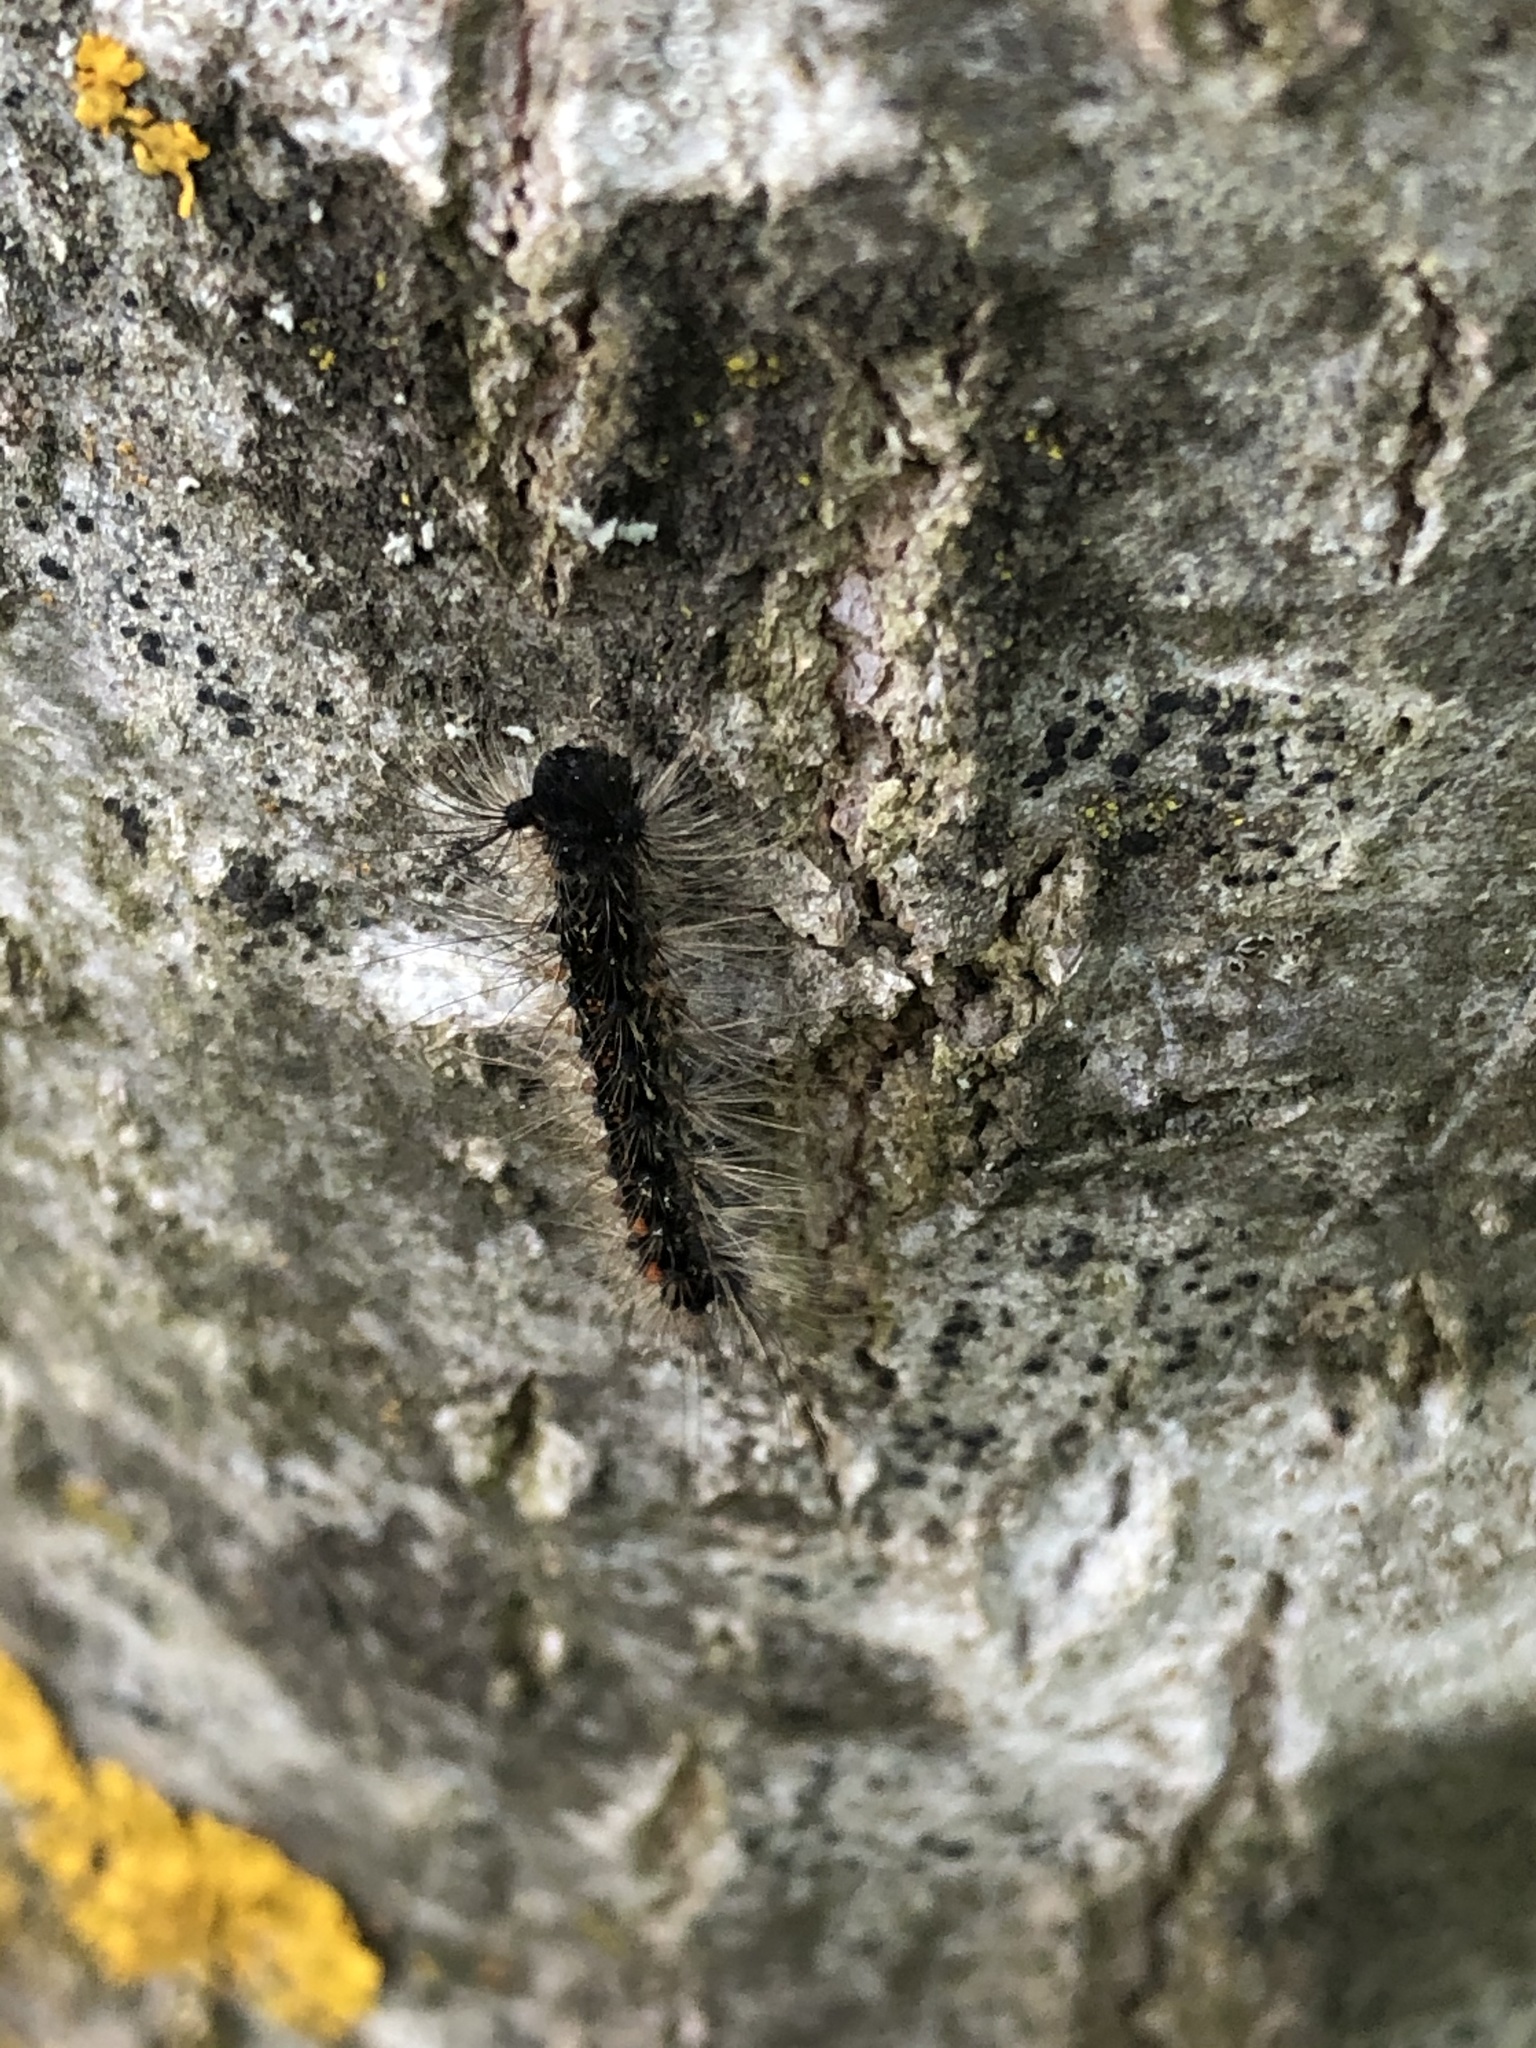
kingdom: Animalia
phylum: Arthropoda
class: Insecta
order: Lepidoptera
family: Erebidae
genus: Lymantria
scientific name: Lymantria dispar
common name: Gypsy moth
